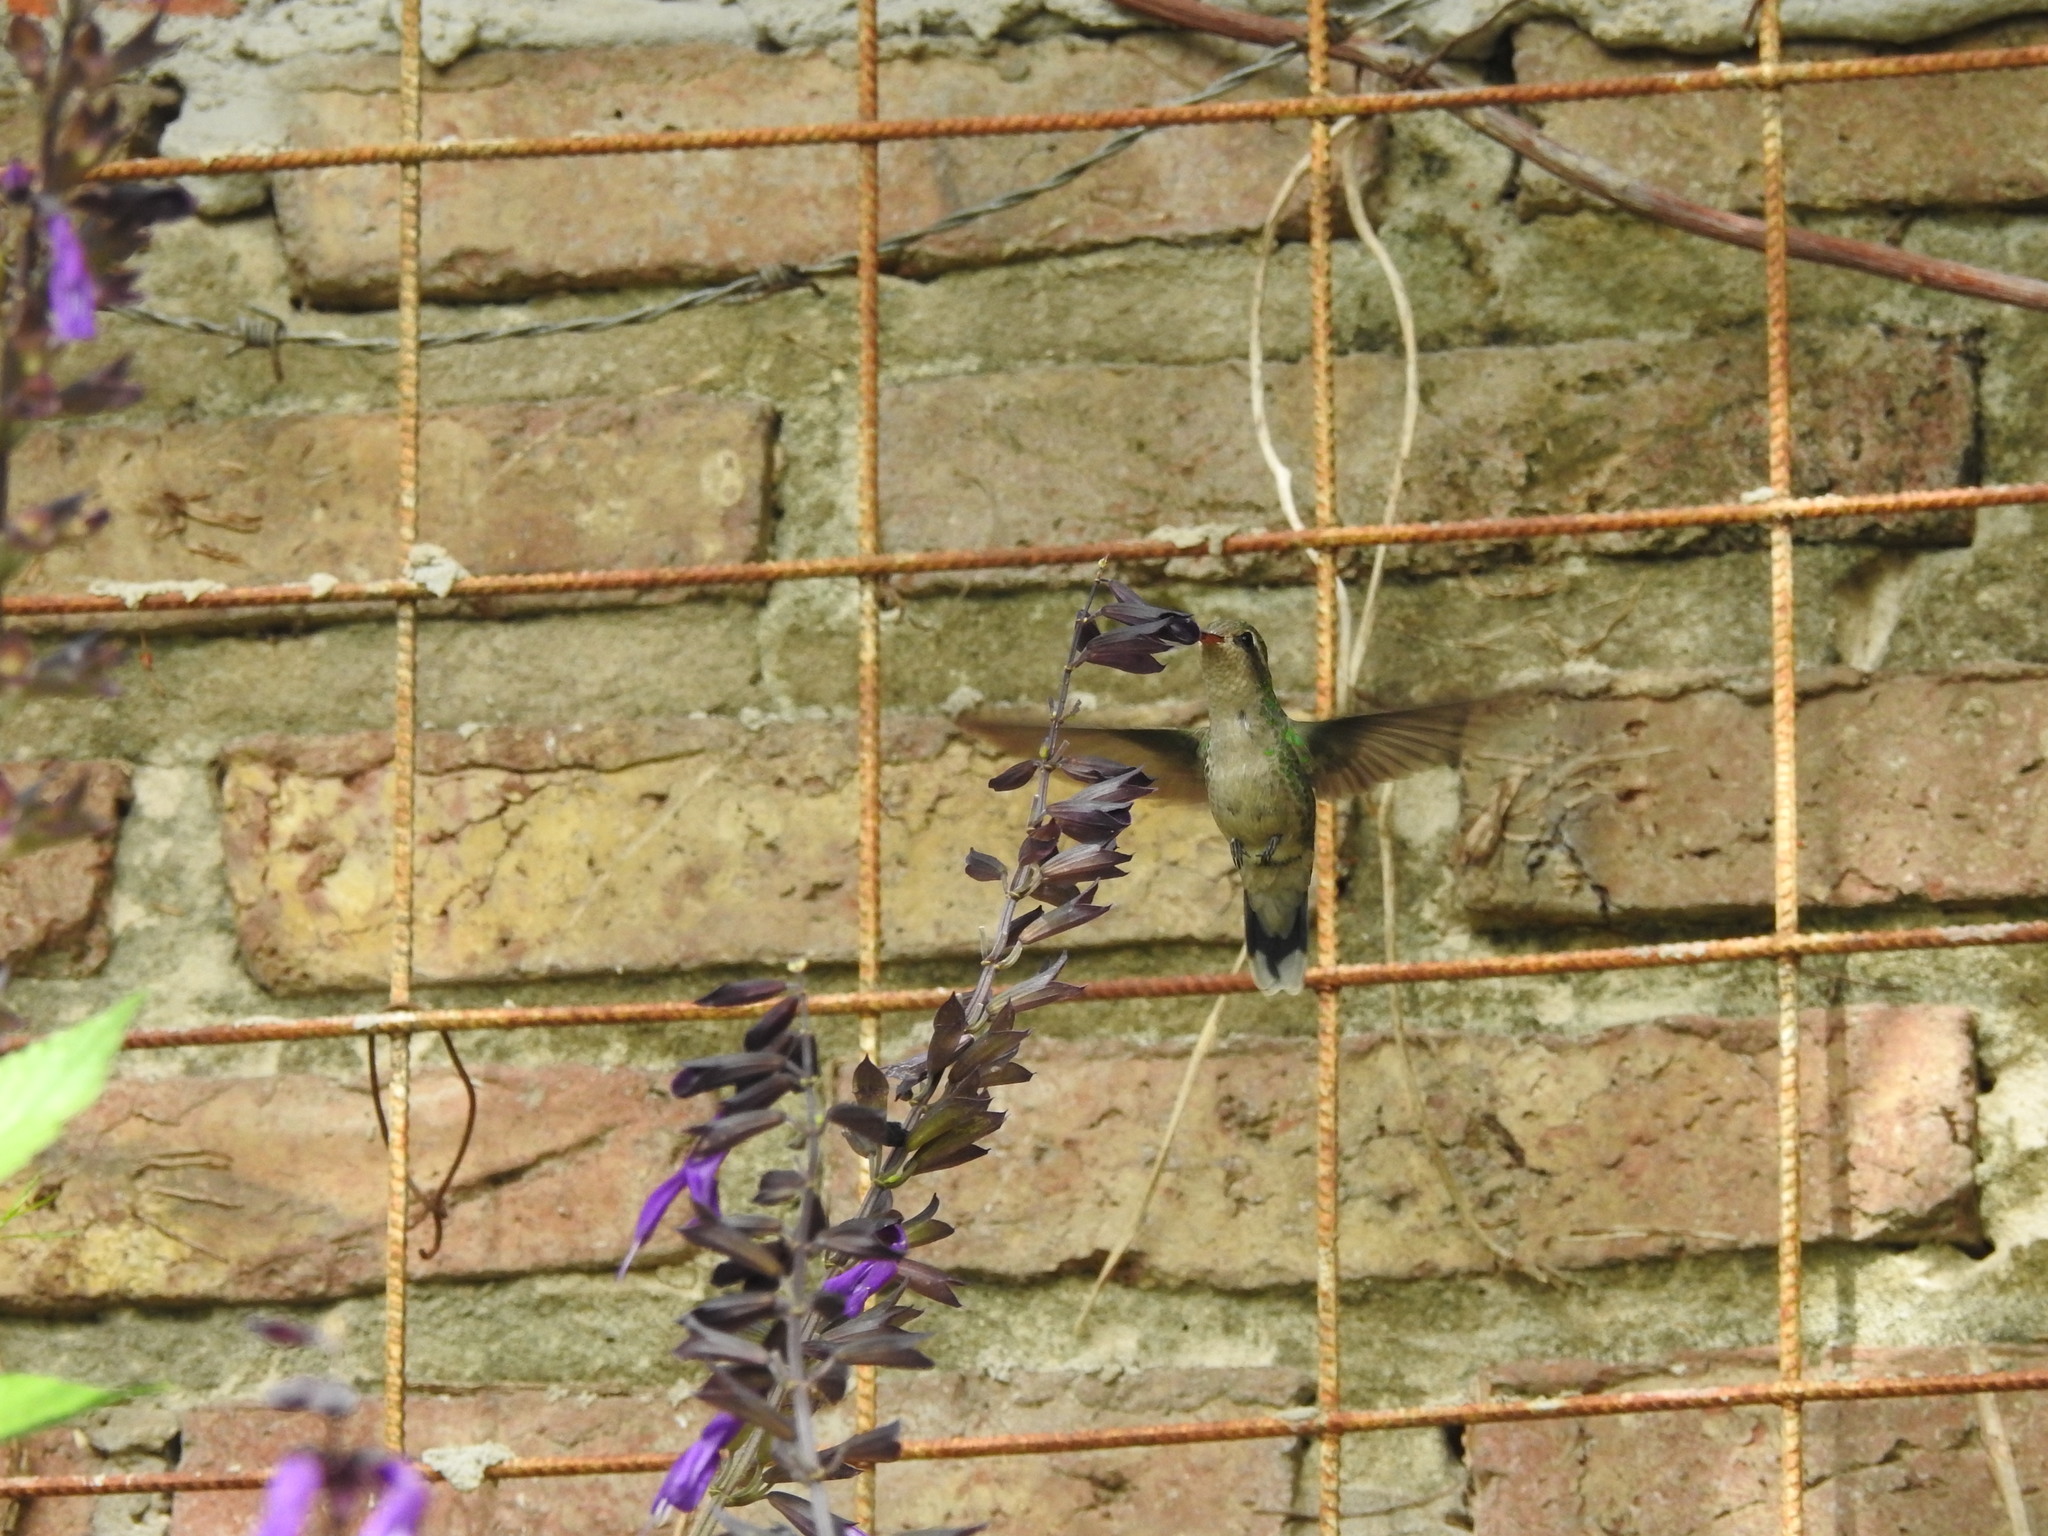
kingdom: Animalia
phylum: Chordata
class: Aves
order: Apodiformes
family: Trochilidae
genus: Chlorostilbon
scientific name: Chlorostilbon lucidus
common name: Glittering-bellied emerald
